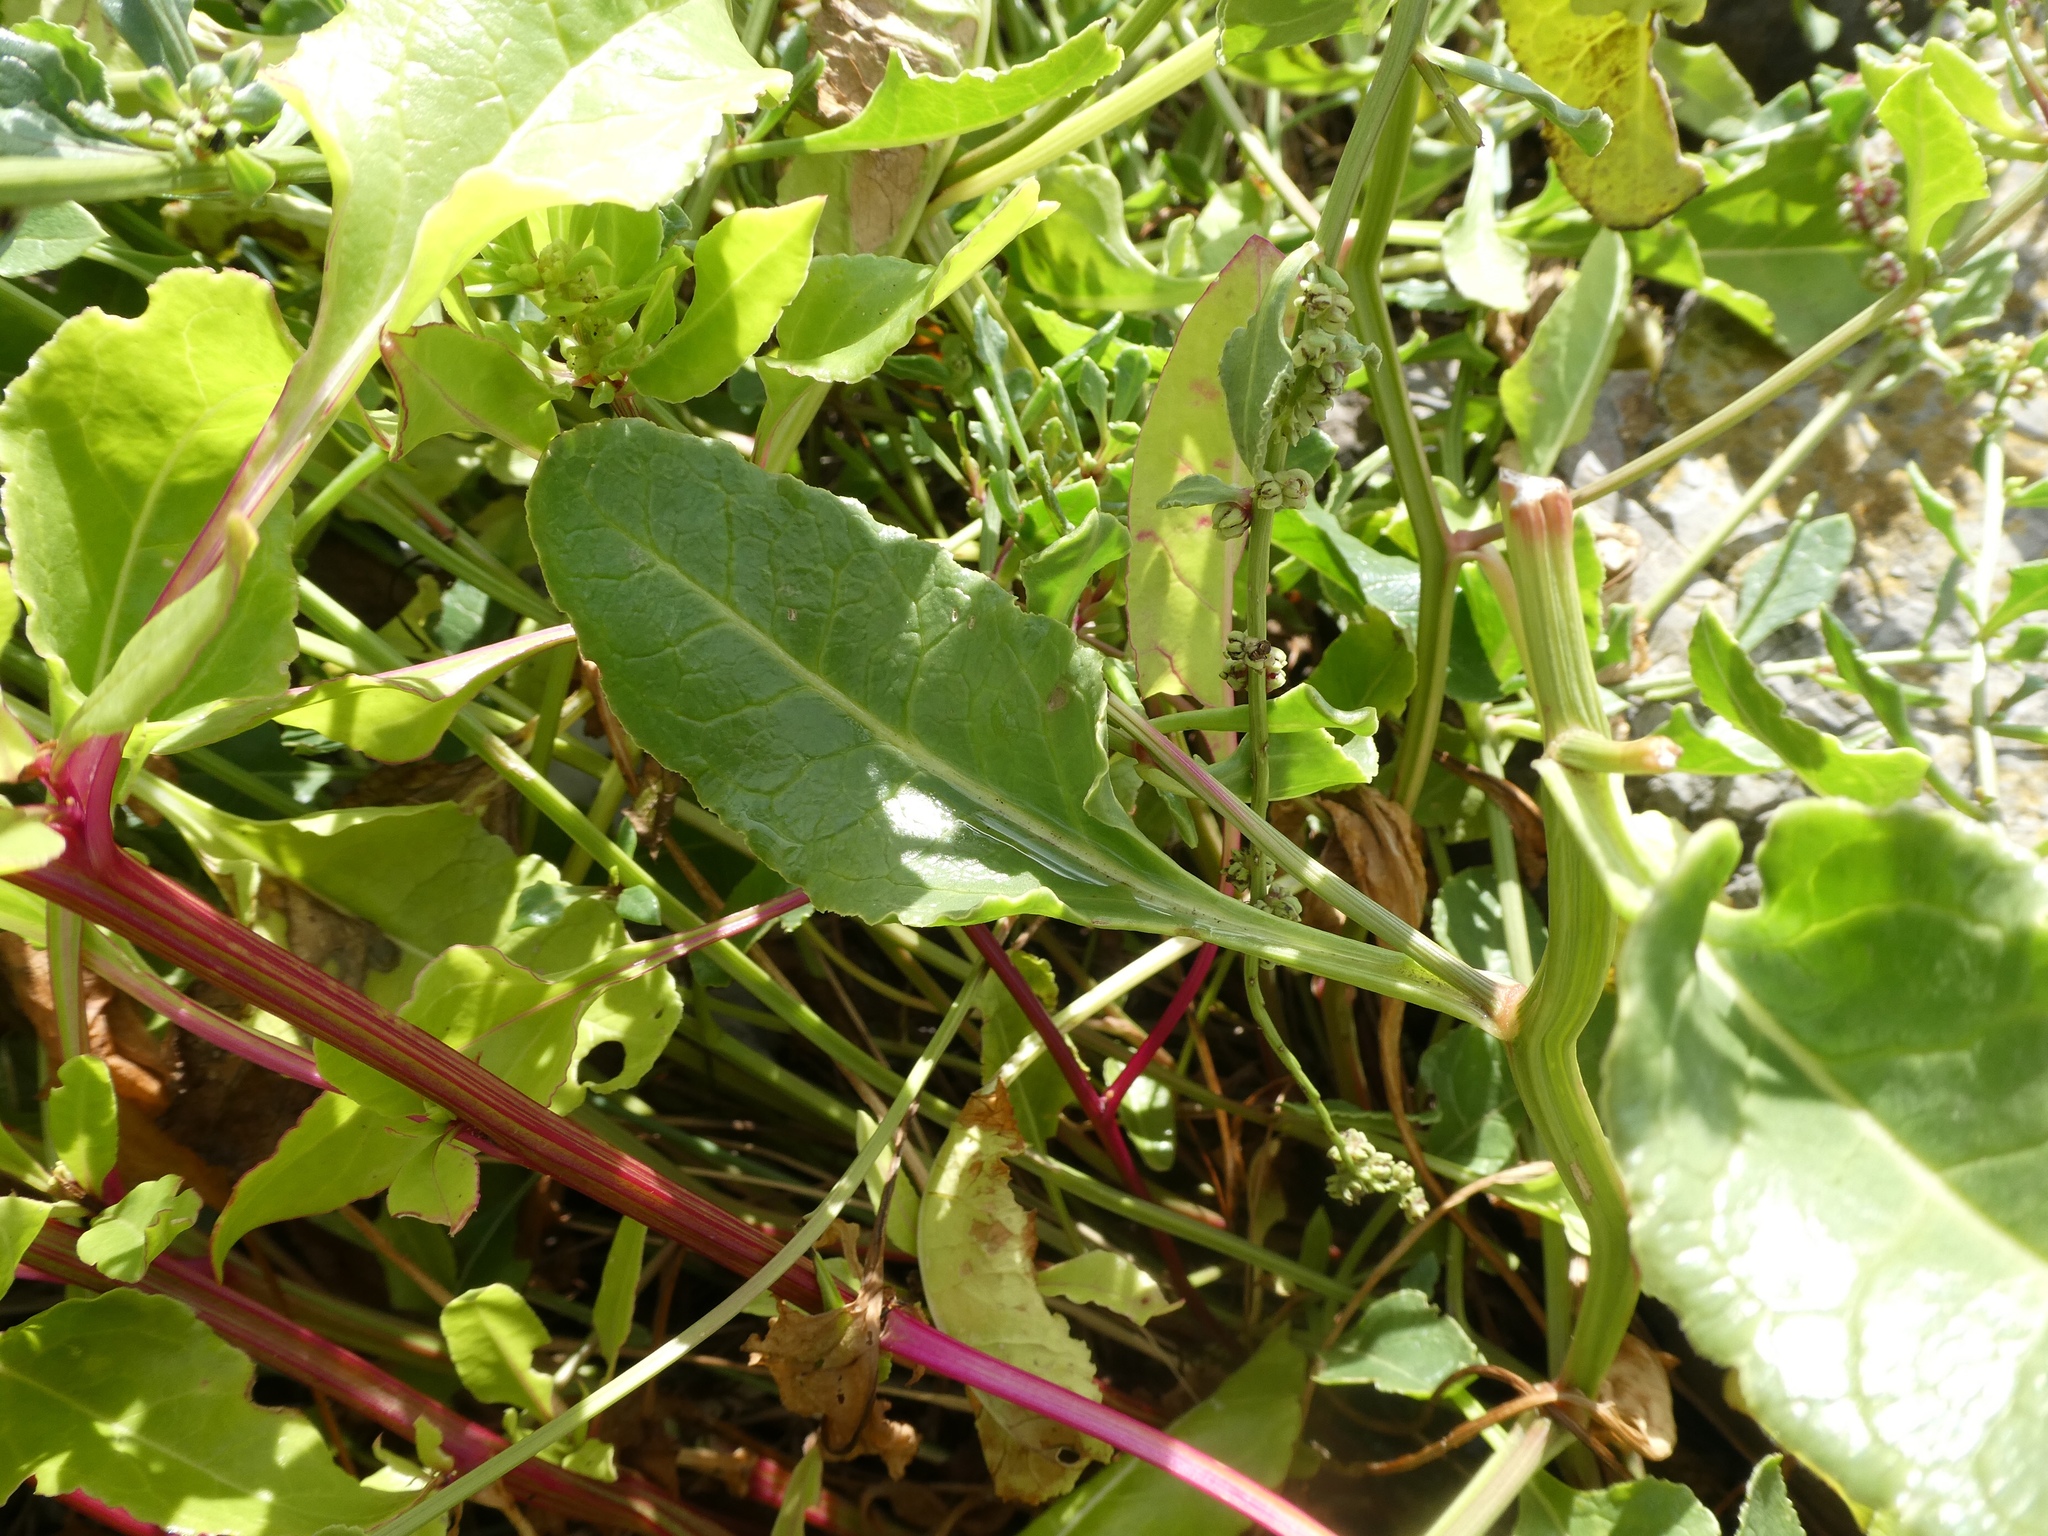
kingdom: Plantae
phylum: Tracheophyta
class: Magnoliopsida
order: Caryophyllales
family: Amaranthaceae
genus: Beta
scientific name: Beta vulgaris
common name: Beet
